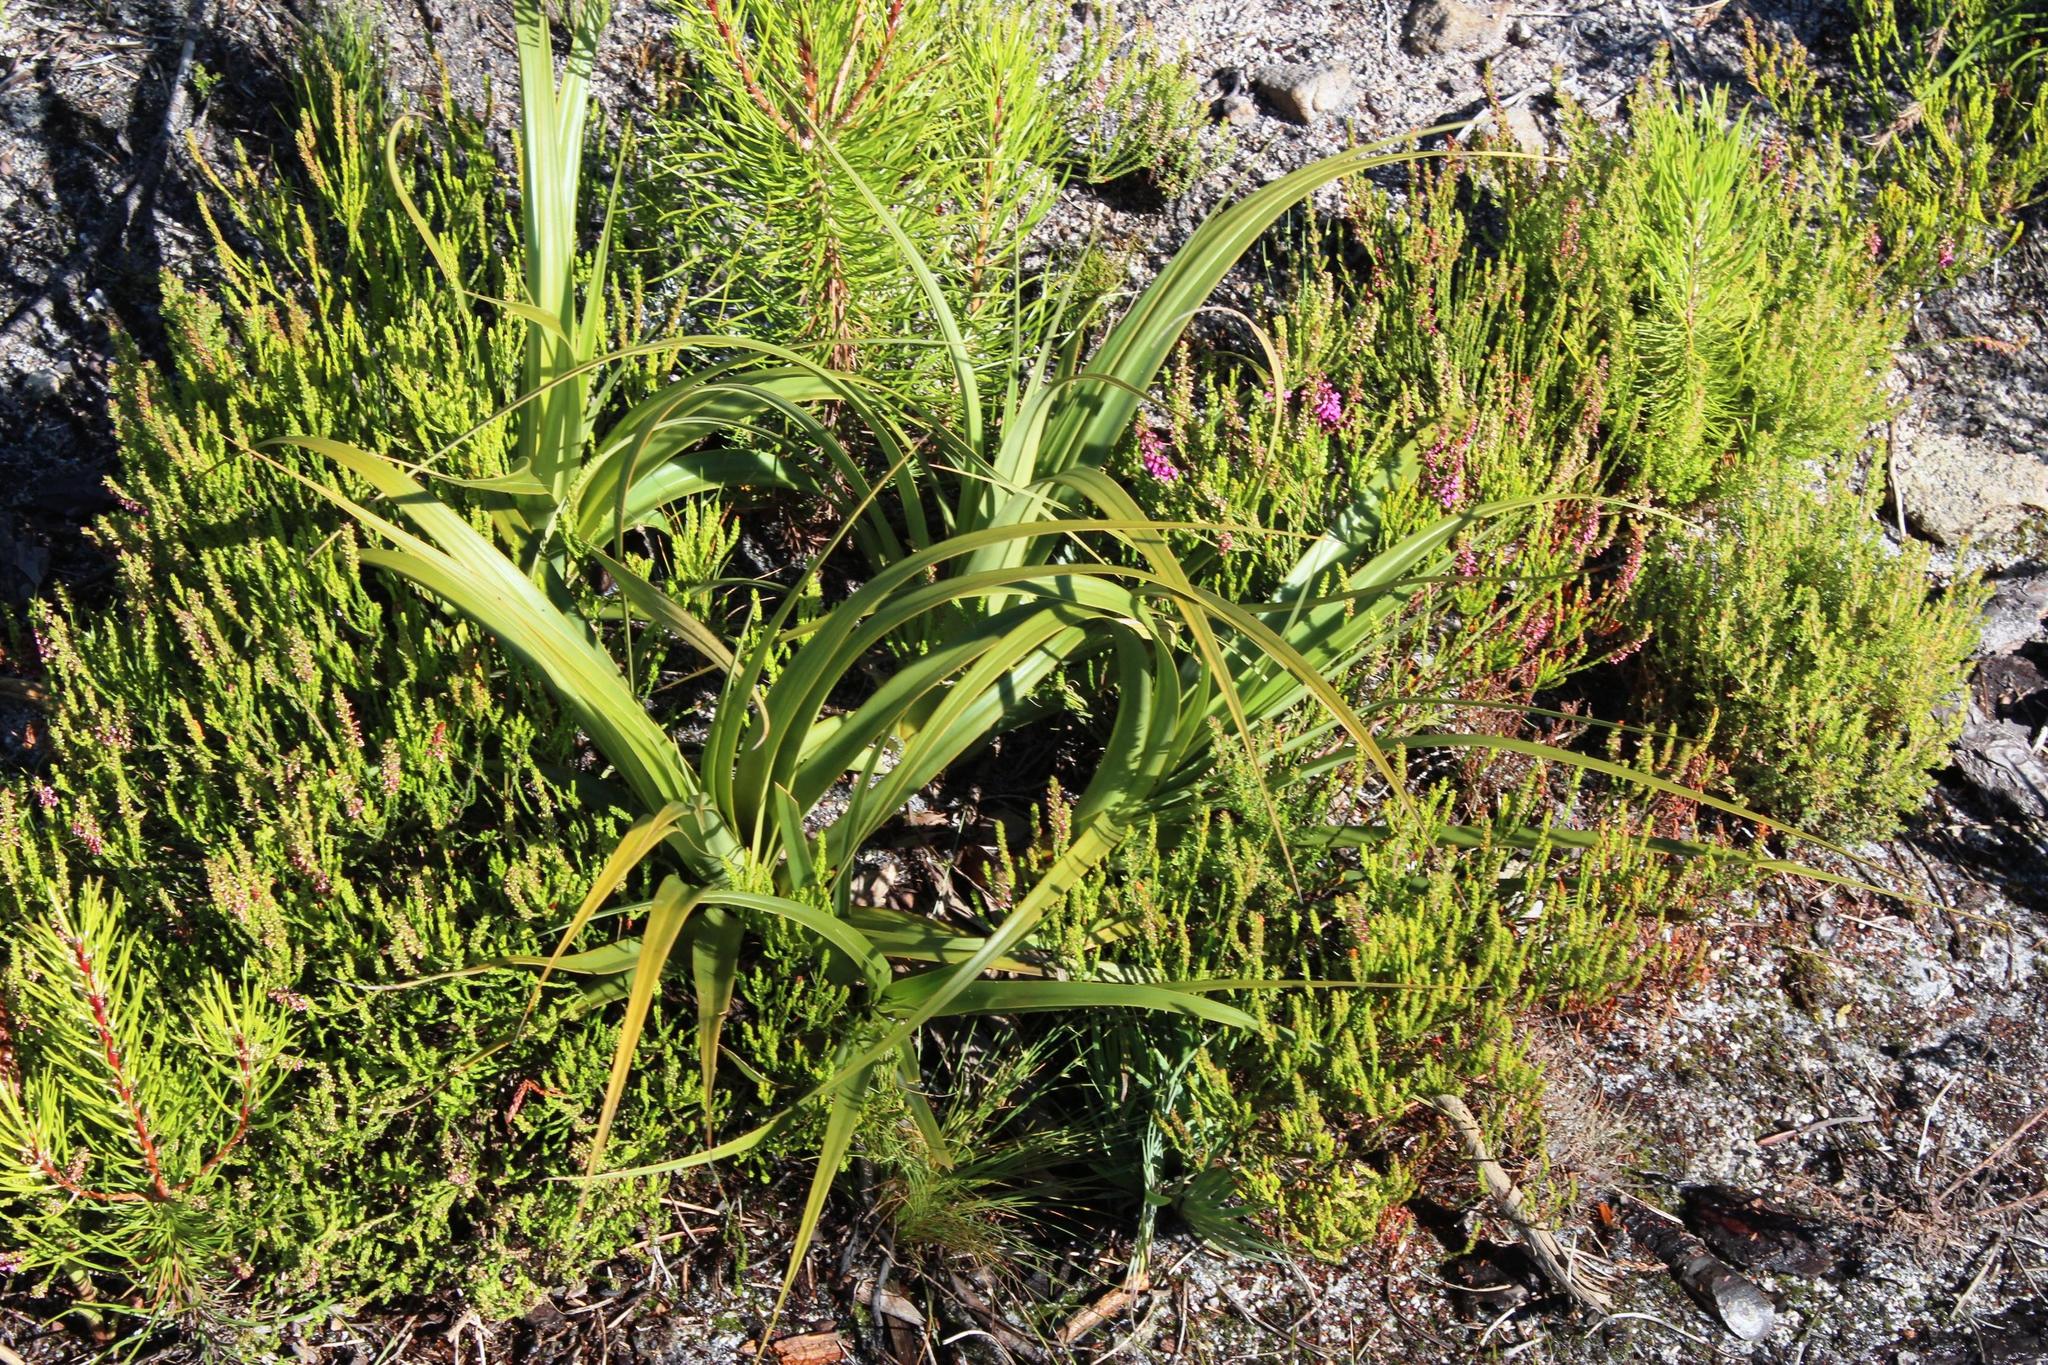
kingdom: Plantae
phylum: Tracheophyta
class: Magnoliopsida
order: Ericales
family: Ericaceae
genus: Erica
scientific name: Erica pulchella
